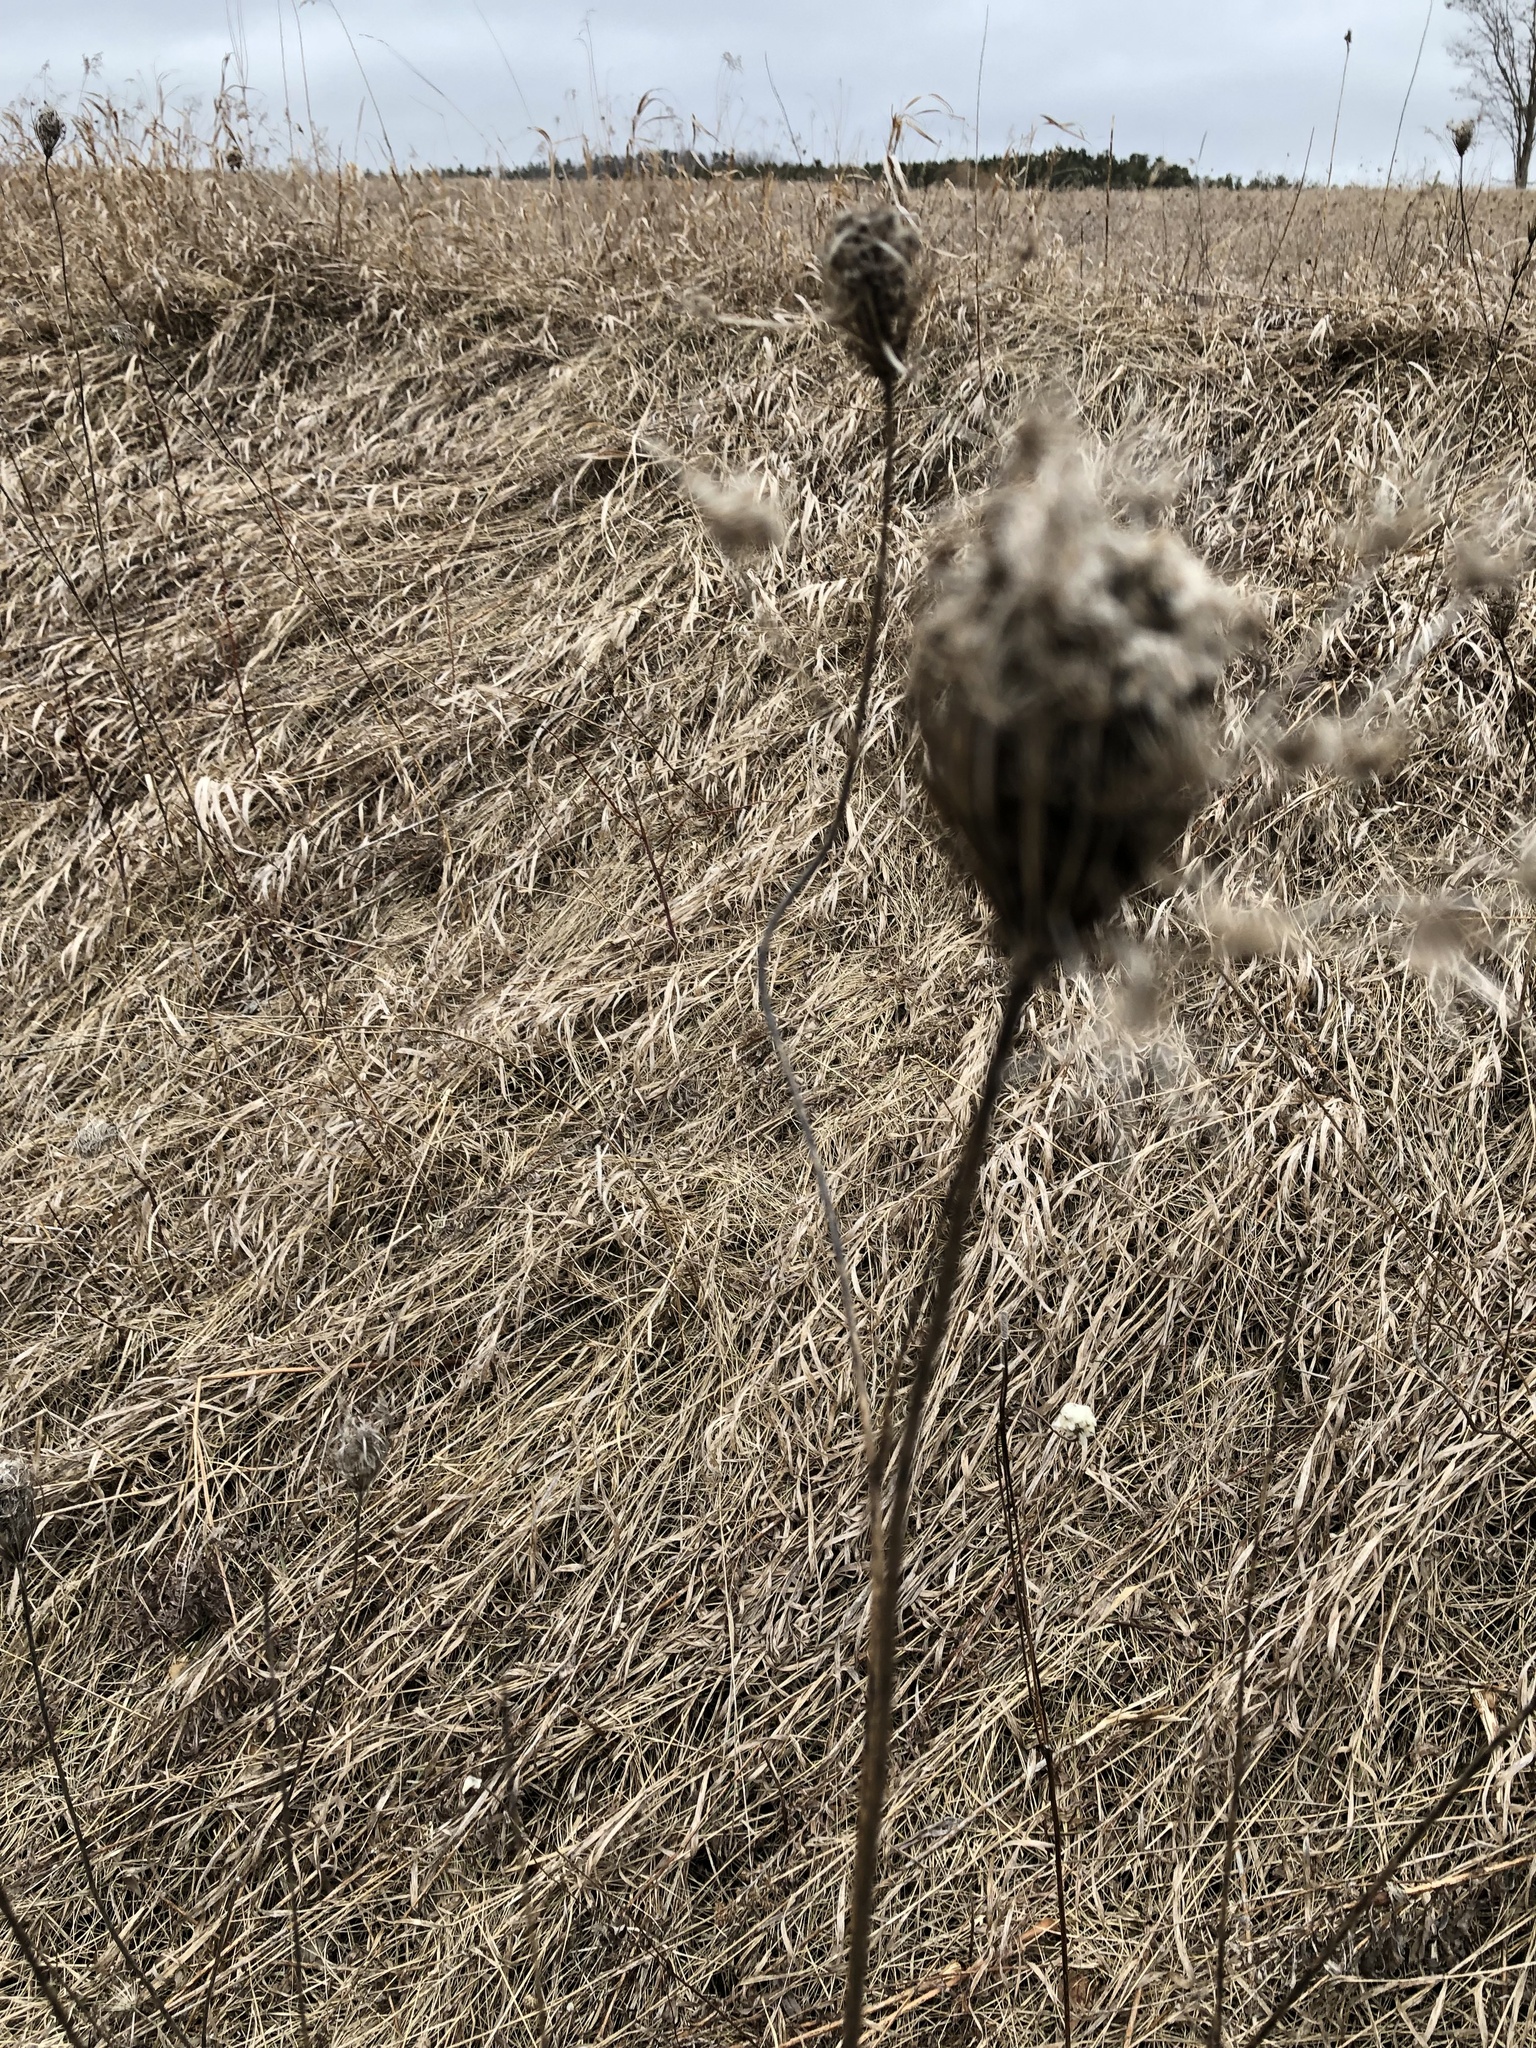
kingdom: Plantae
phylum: Tracheophyta
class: Magnoliopsida
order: Apiales
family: Apiaceae
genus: Daucus
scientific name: Daucus carota
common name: Wild carrot
